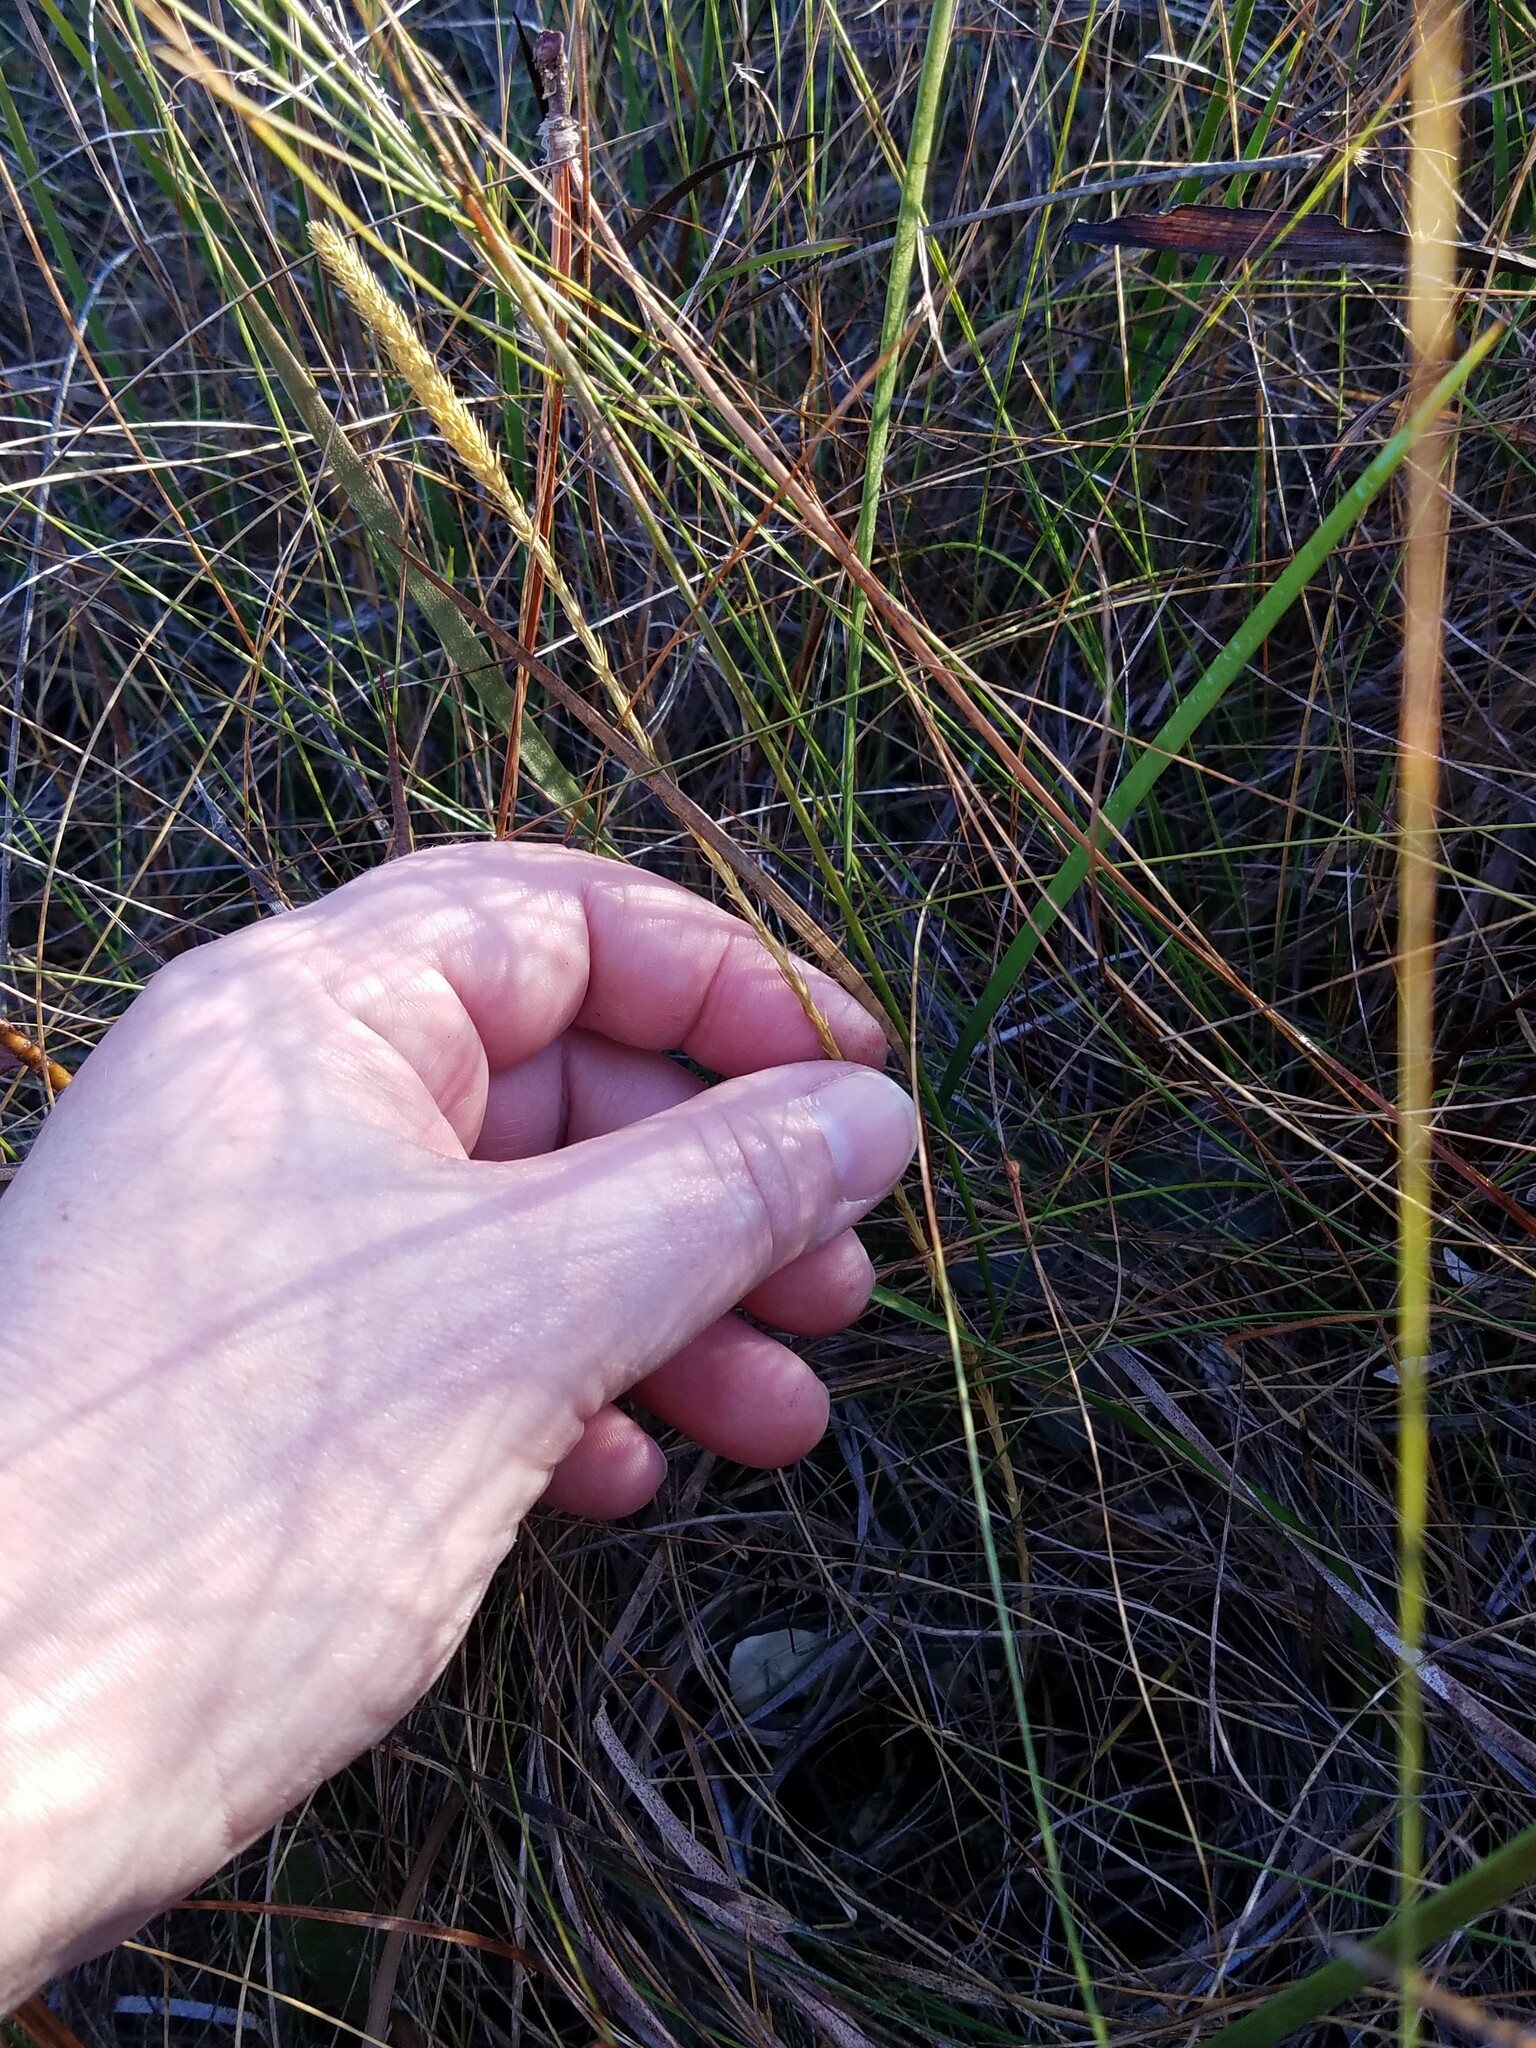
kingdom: Plantae
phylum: Tracheophyta
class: Lycopodiopsida
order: Lycopodiales
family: Lycopodiaceae
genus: Pseudolycopodiella
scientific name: Pseudolycopodiella caroliniana
